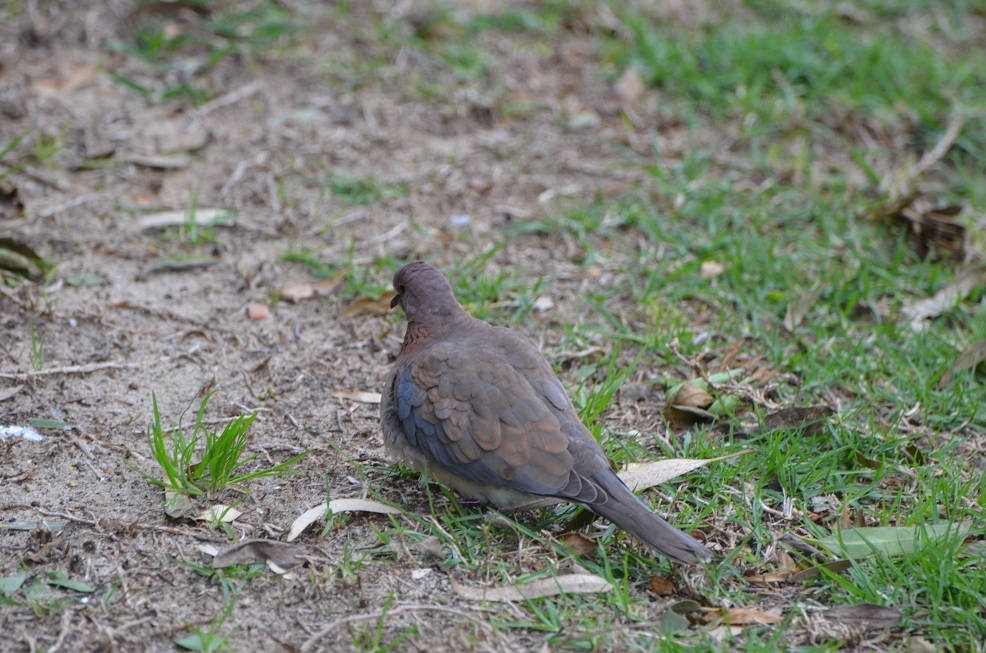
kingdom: Animalia
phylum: Chordata
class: Aves
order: Columbiformes
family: Columbidae
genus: Spilopelia
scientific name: Spilopelia senegalensis
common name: Laughing dove
